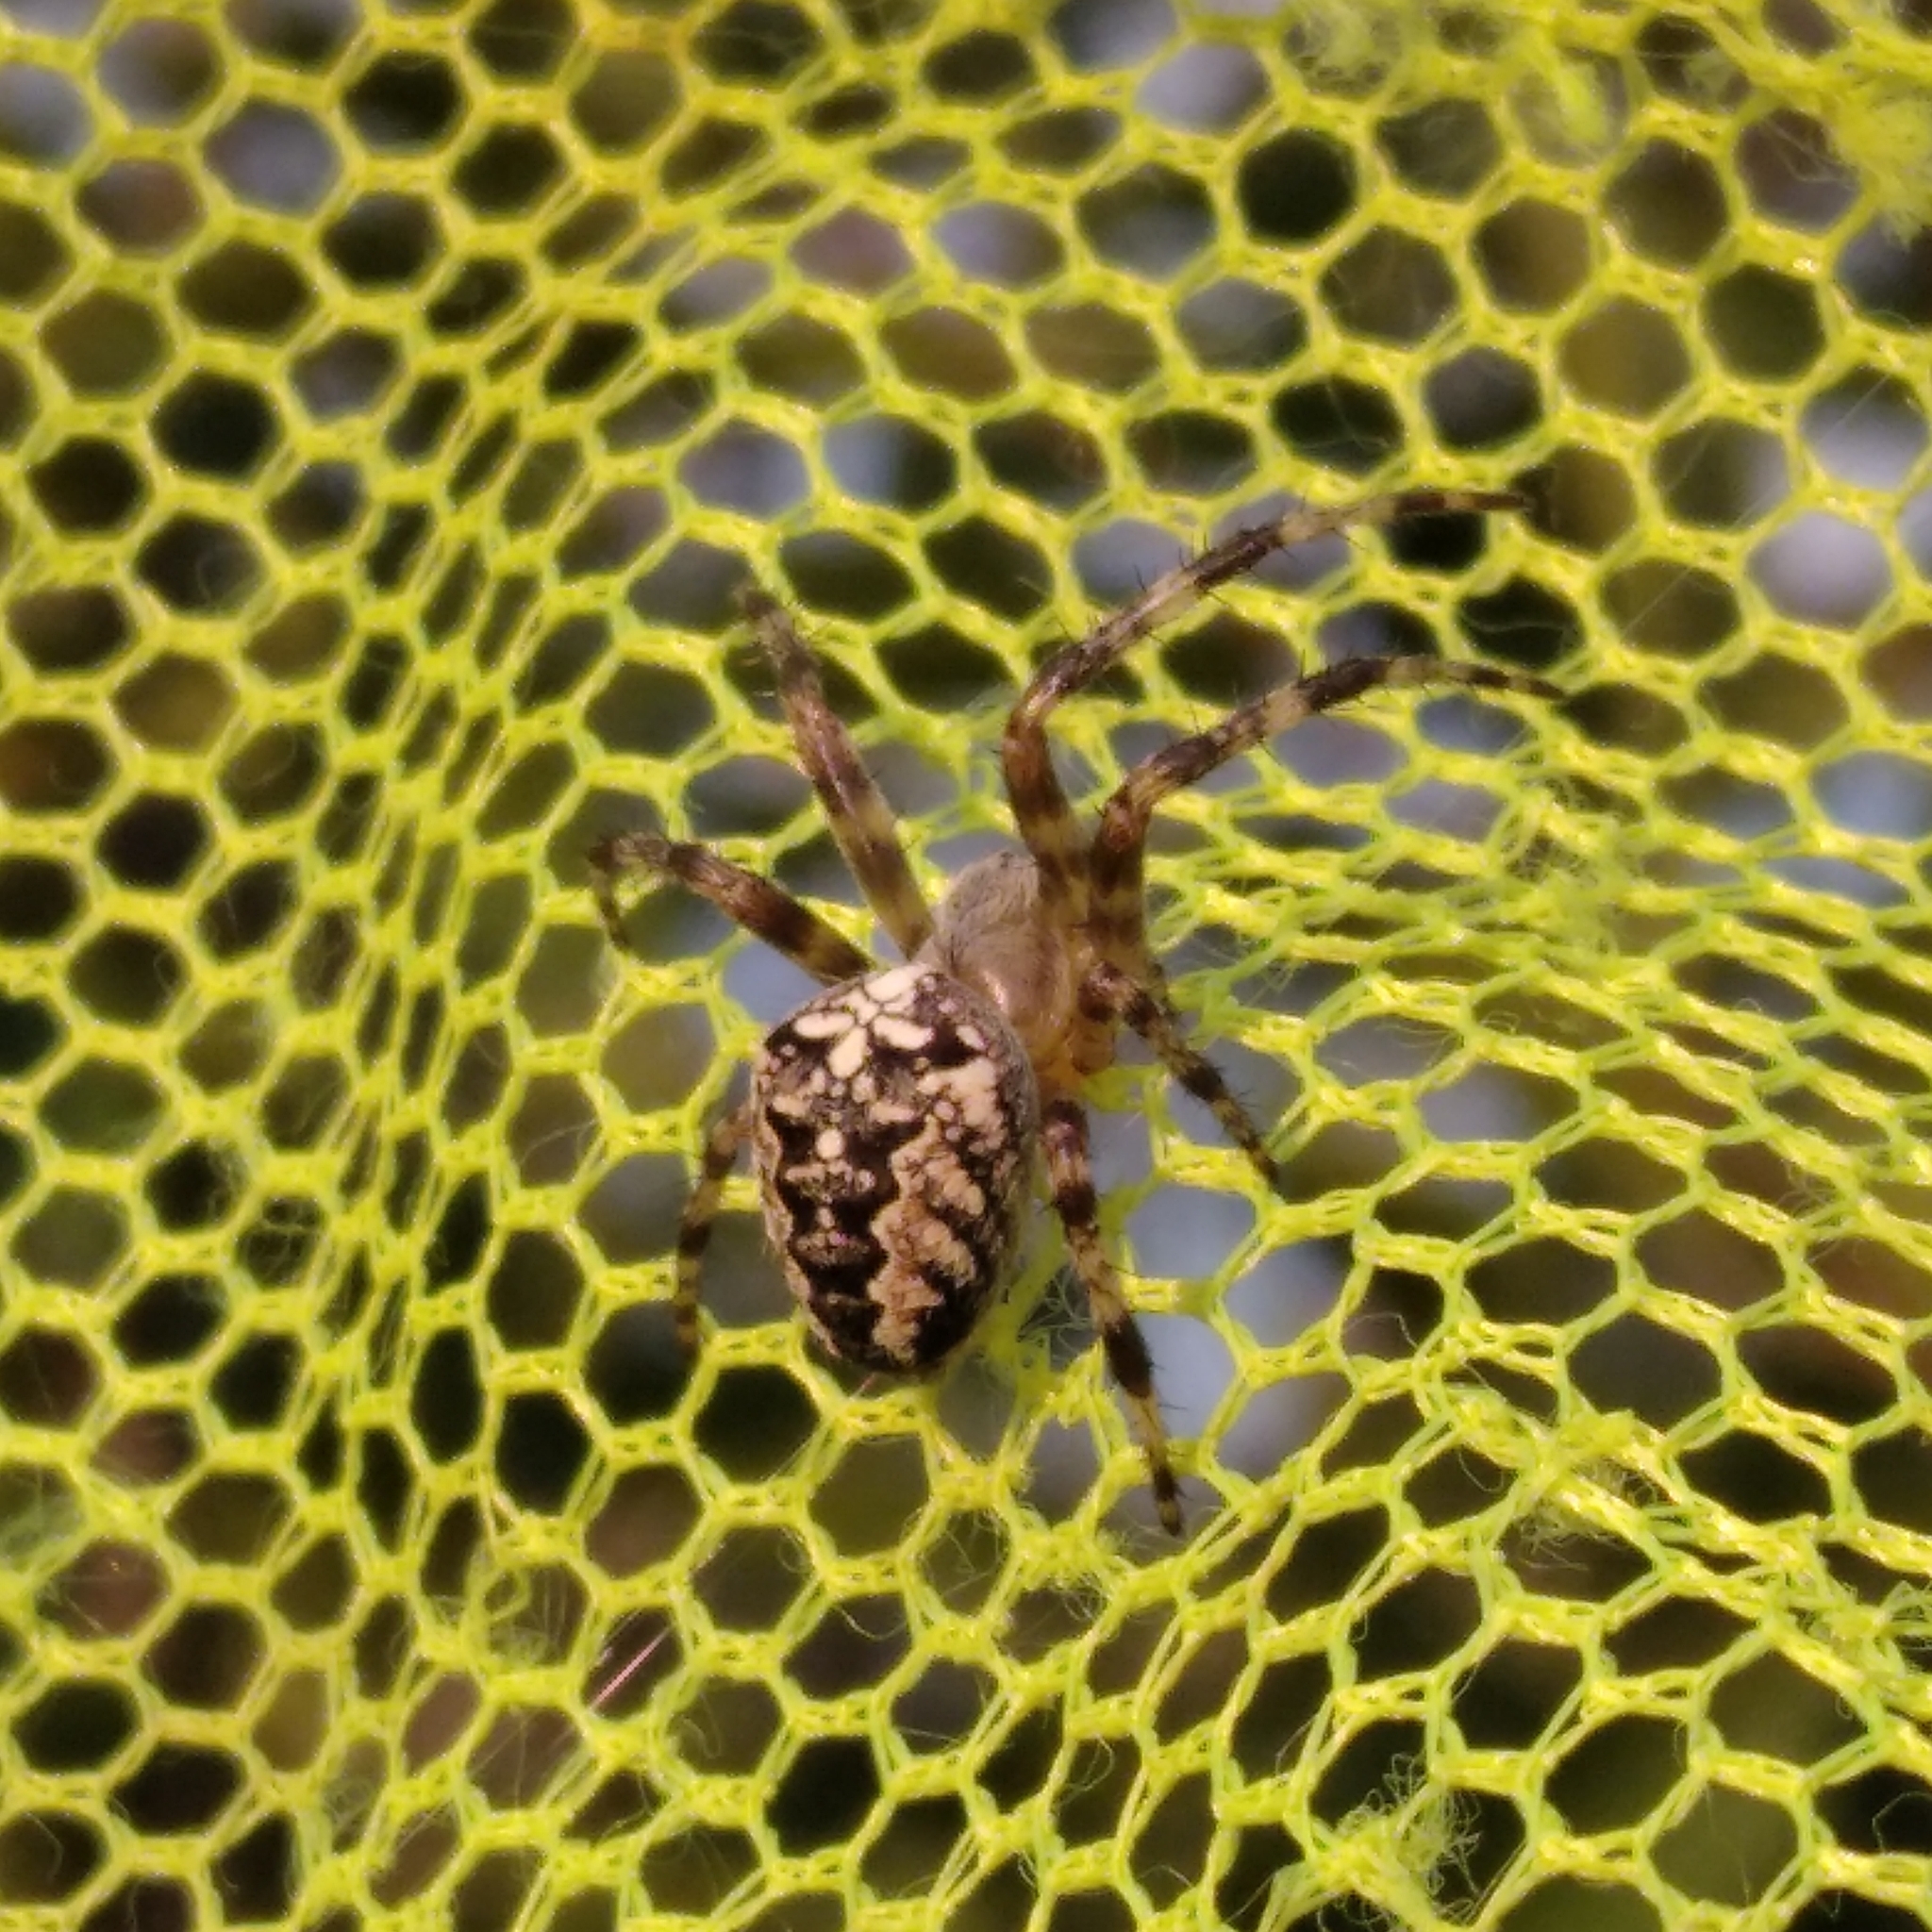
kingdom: Animalia
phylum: Arthropoda
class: Arachnida
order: Araneae
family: Araneidae
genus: Araneus
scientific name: Araneus diadematus
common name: Cross orbweaver
